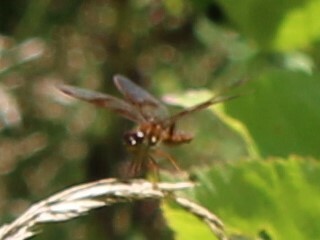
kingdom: Animalia
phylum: Arthropoda
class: Insecta
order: Odonata
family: Libellulidae
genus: Perithemis
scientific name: Perithemis tenera
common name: Eastern amberwing
